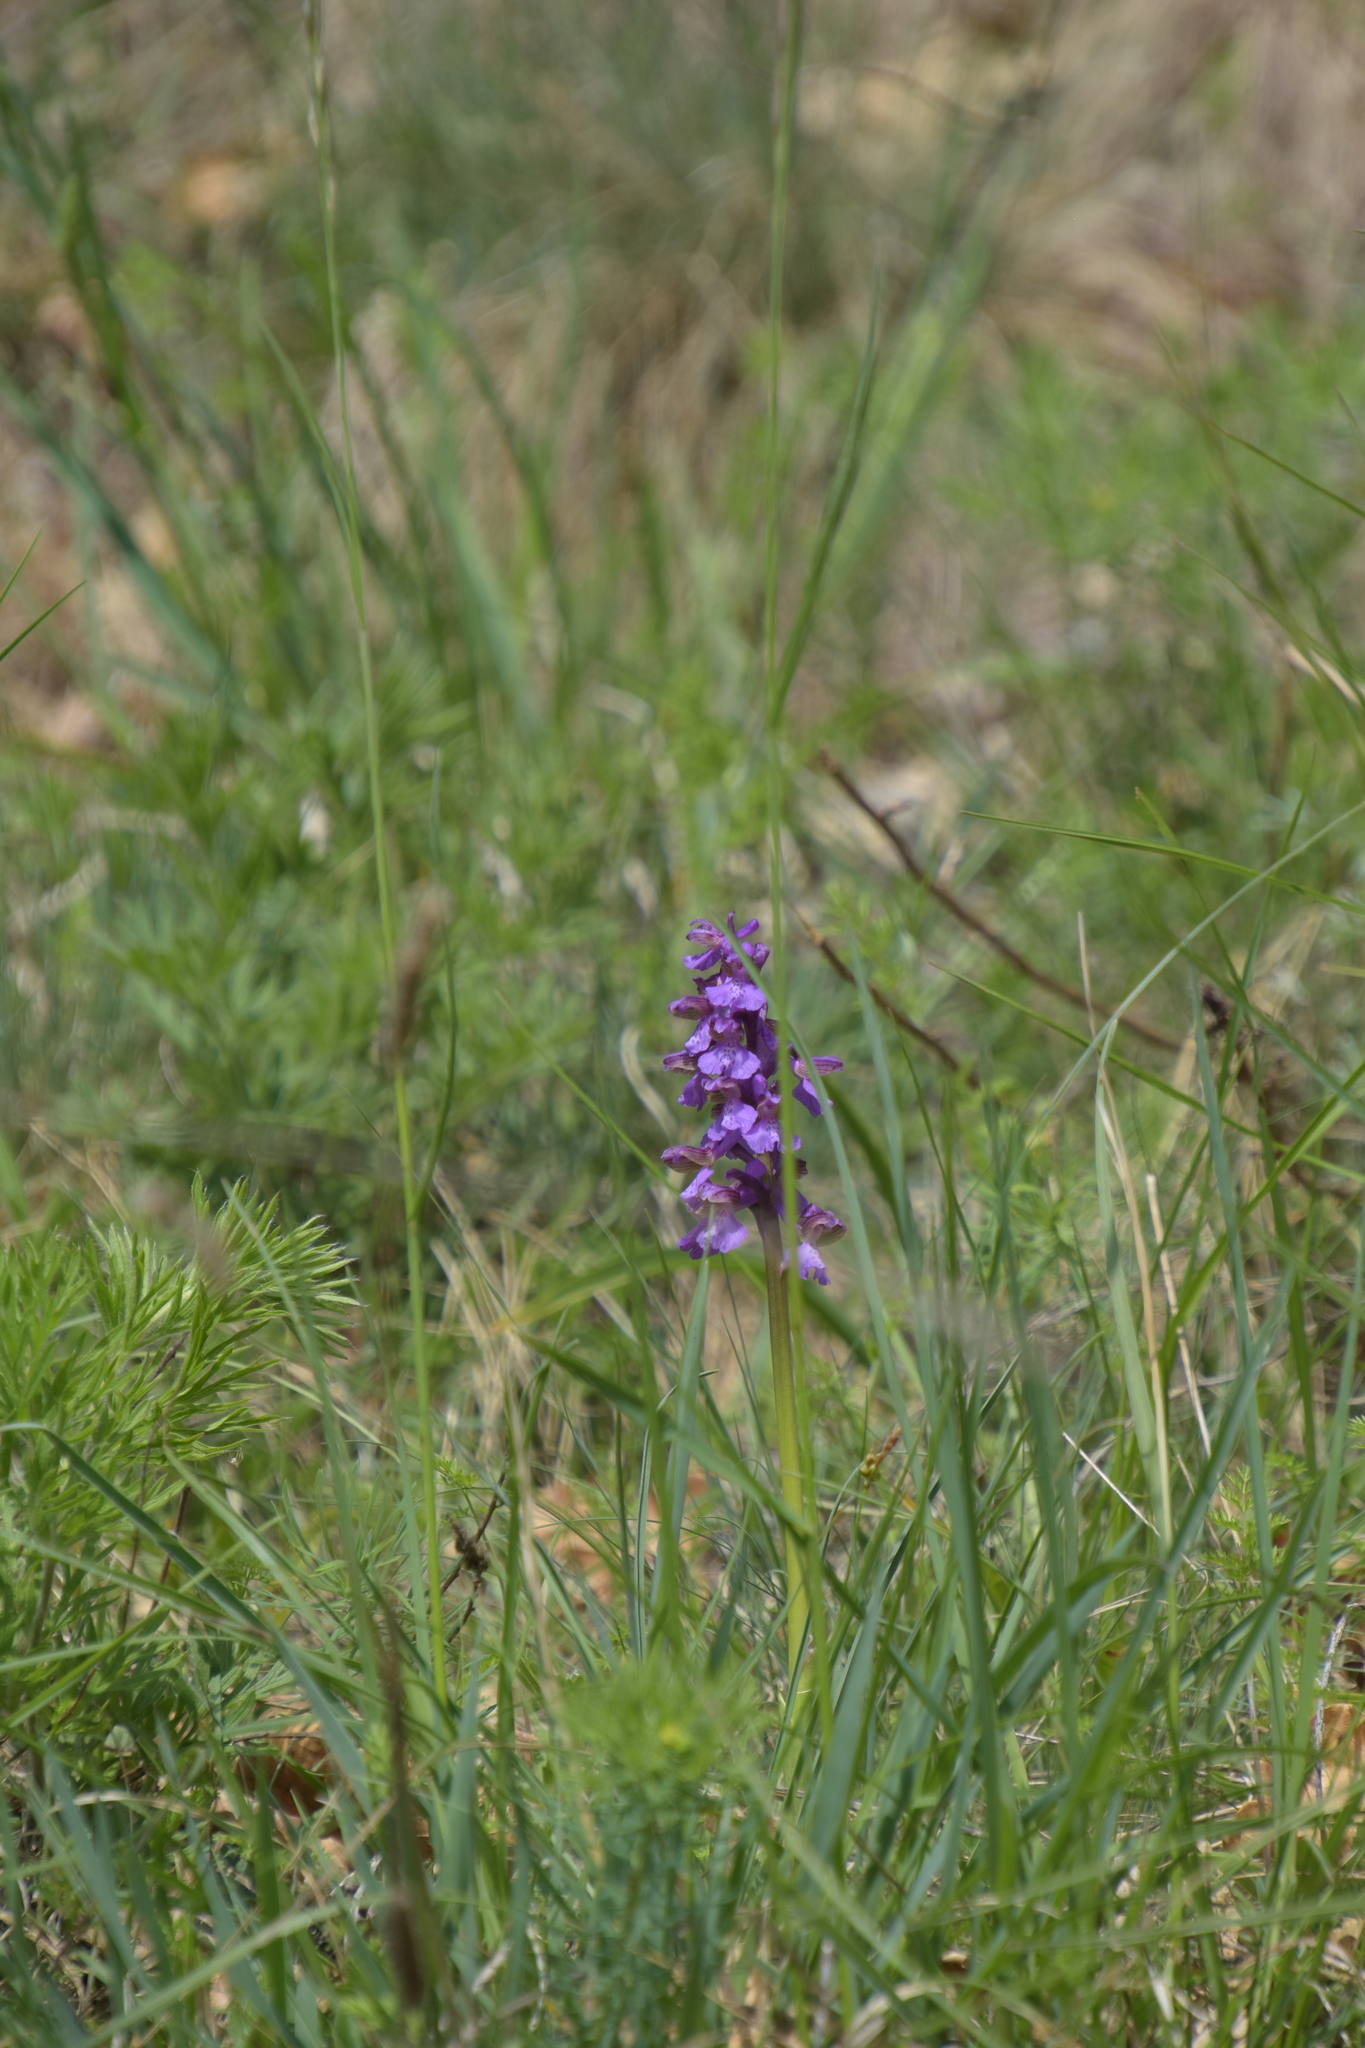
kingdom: Plantae
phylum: Tracheophyta
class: Liliopsida
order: Asparagales
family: Orchidaceae
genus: Anacamptis
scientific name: Anacamptis morio
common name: Green-winged orchid
